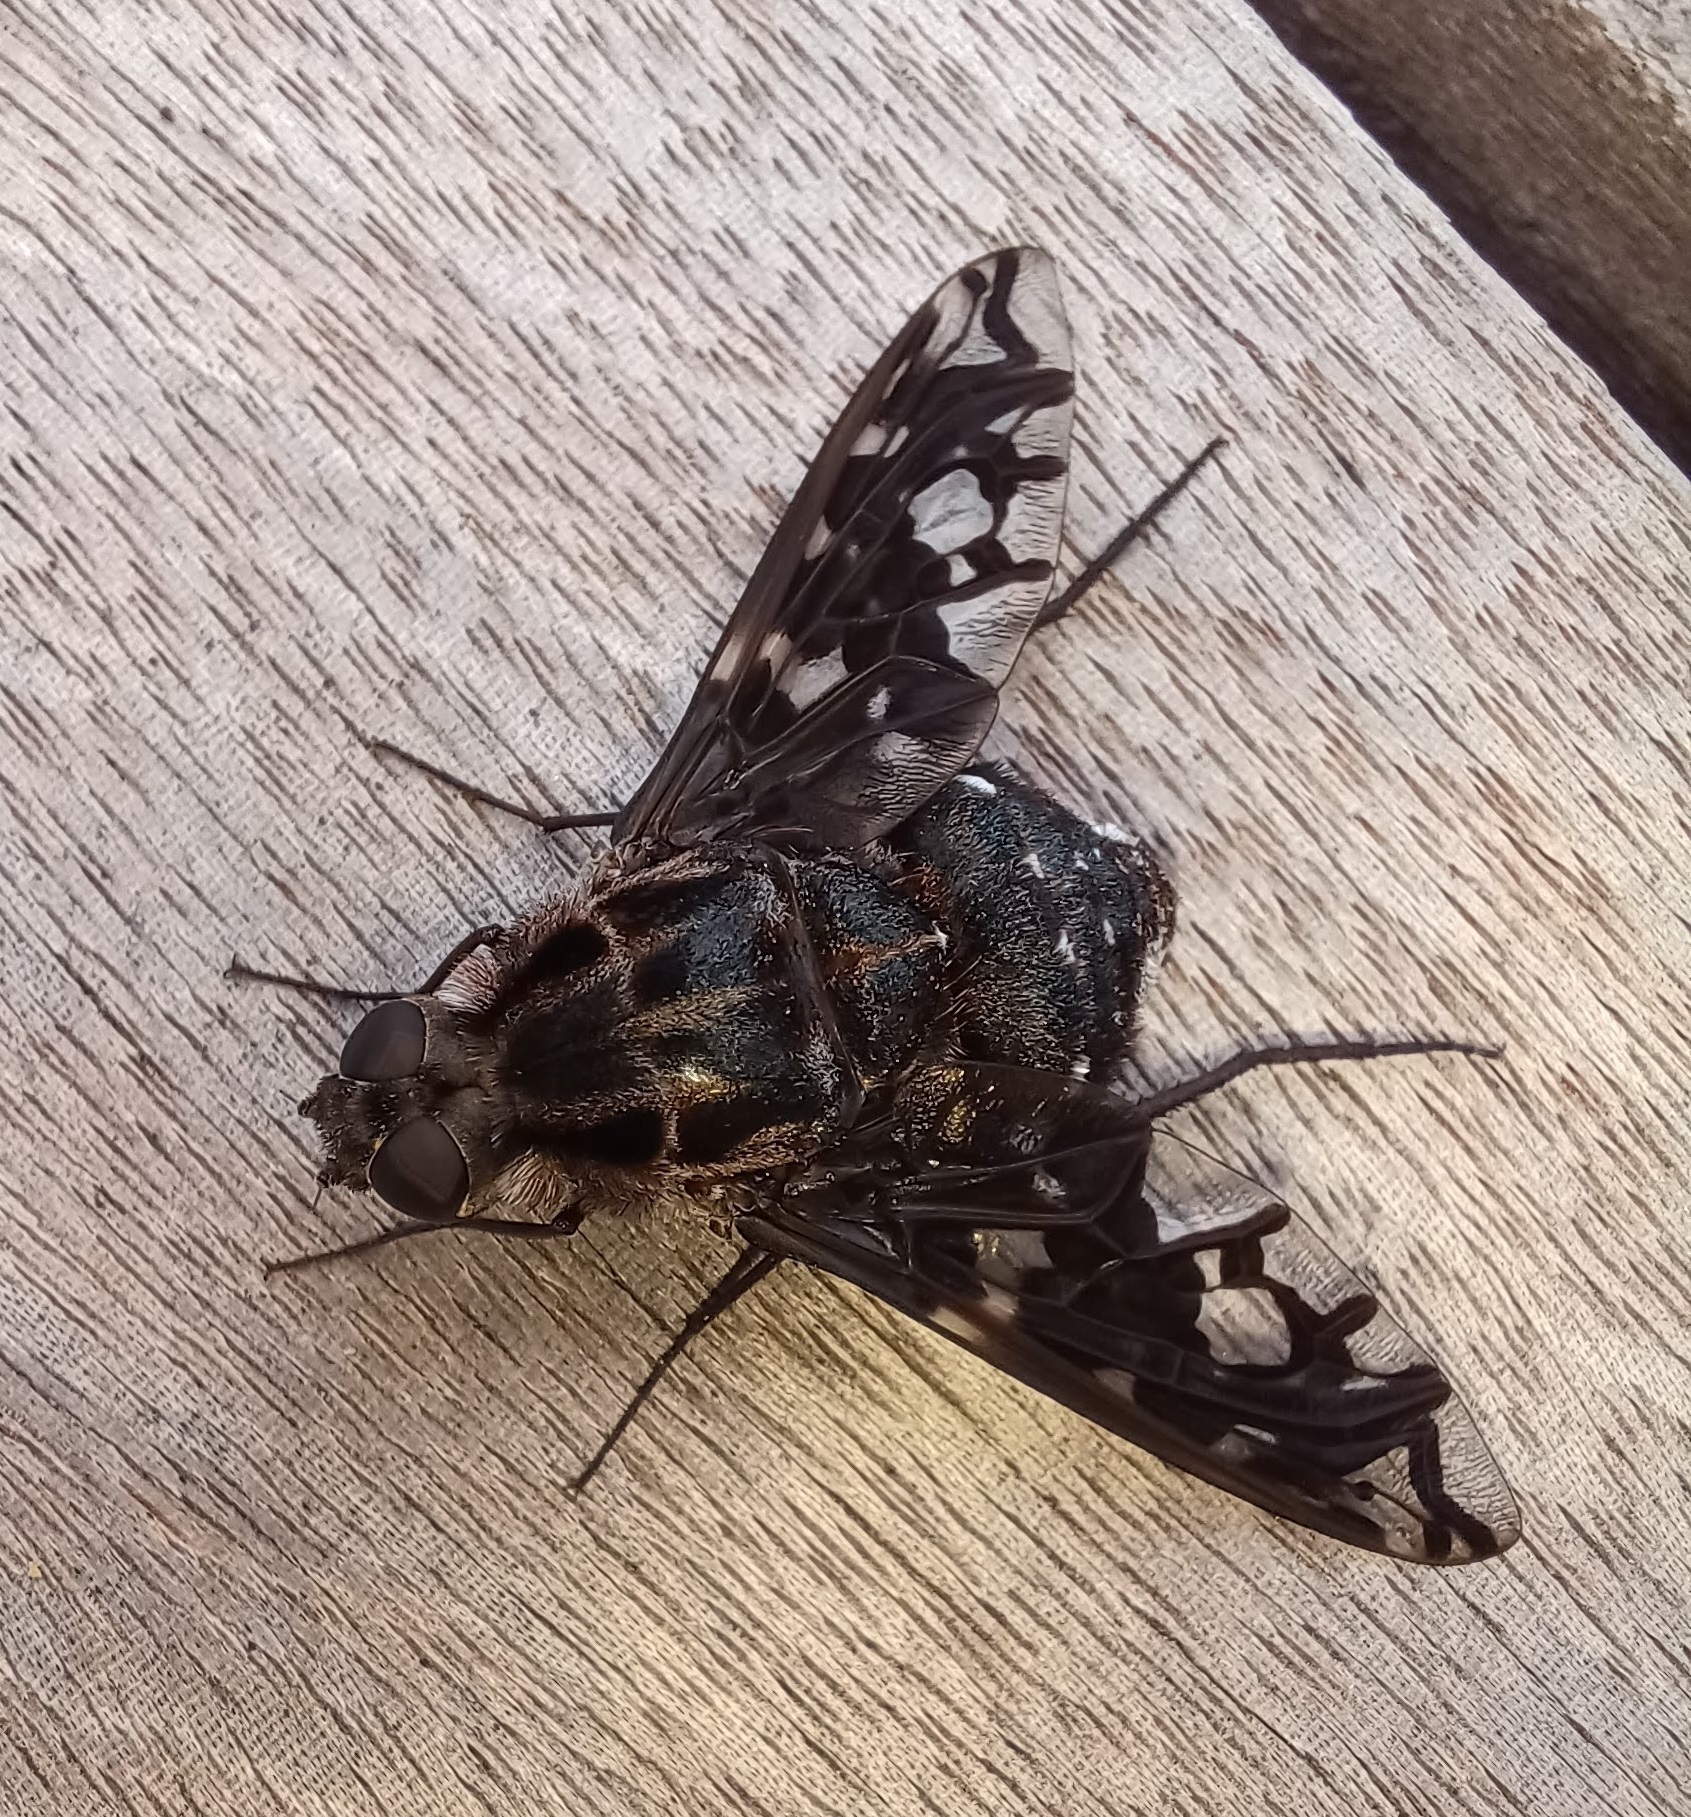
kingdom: Animalia
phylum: Arthropoda
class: Insecta
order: Diptera
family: Bombyliidae
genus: Xenox
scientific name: Xenox tigrinus
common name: Tiger bee fly
